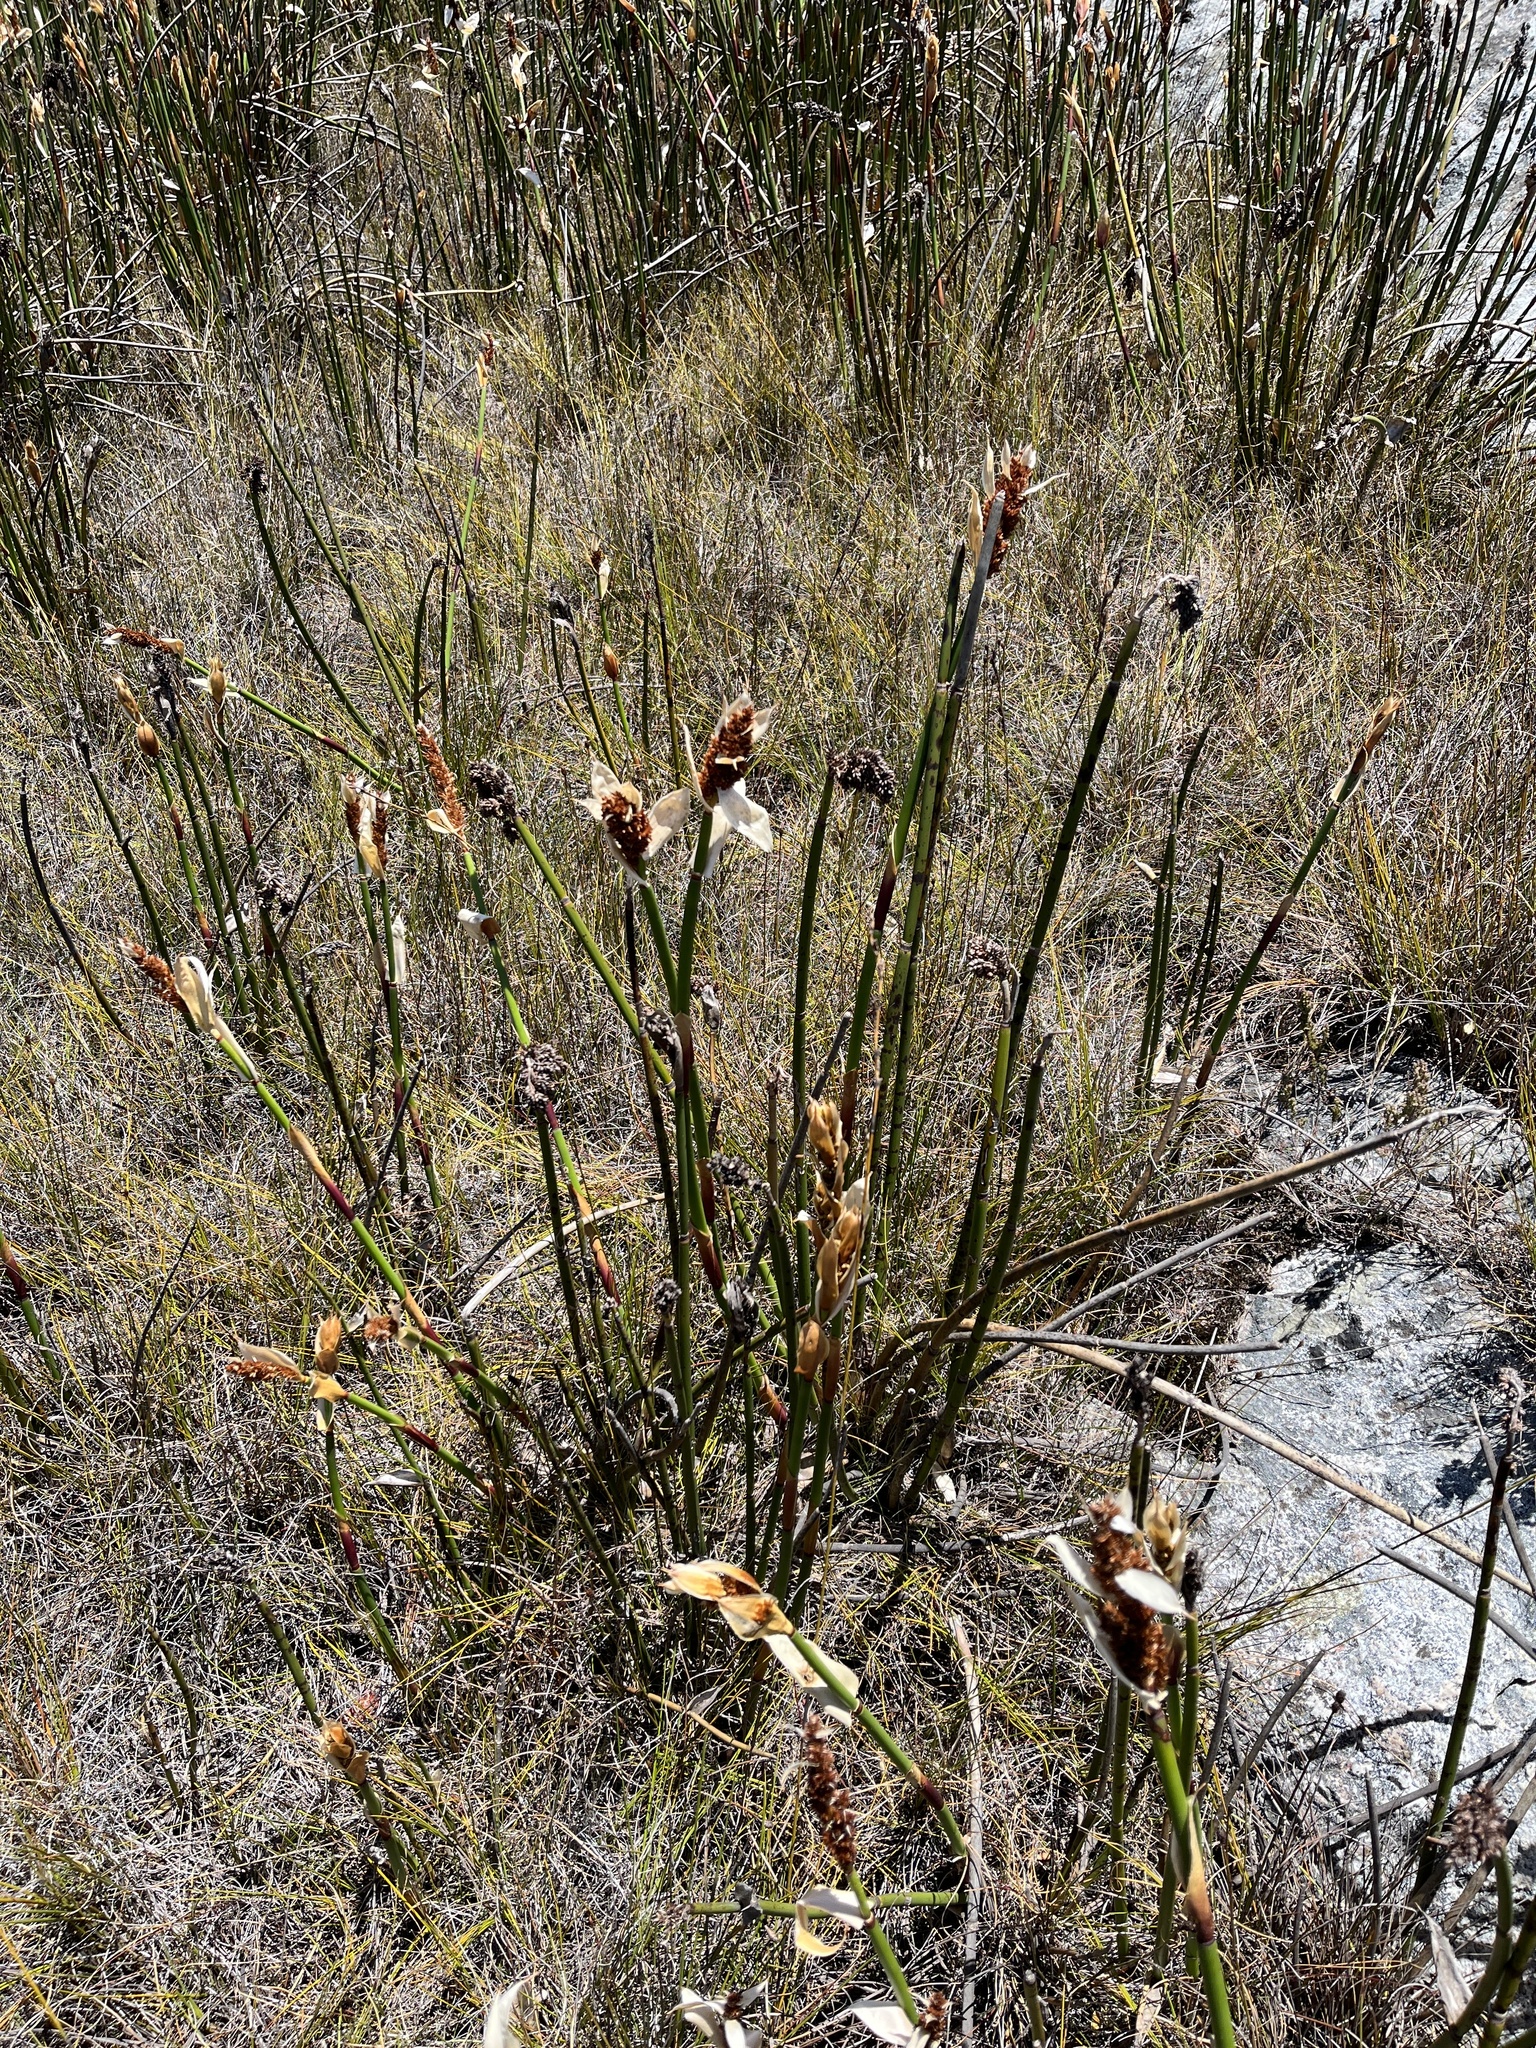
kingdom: Plantae
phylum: Tracheophyta
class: Liliopsida
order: Poales
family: Restionaceae
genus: Elegia
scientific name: Elegia mucronata
